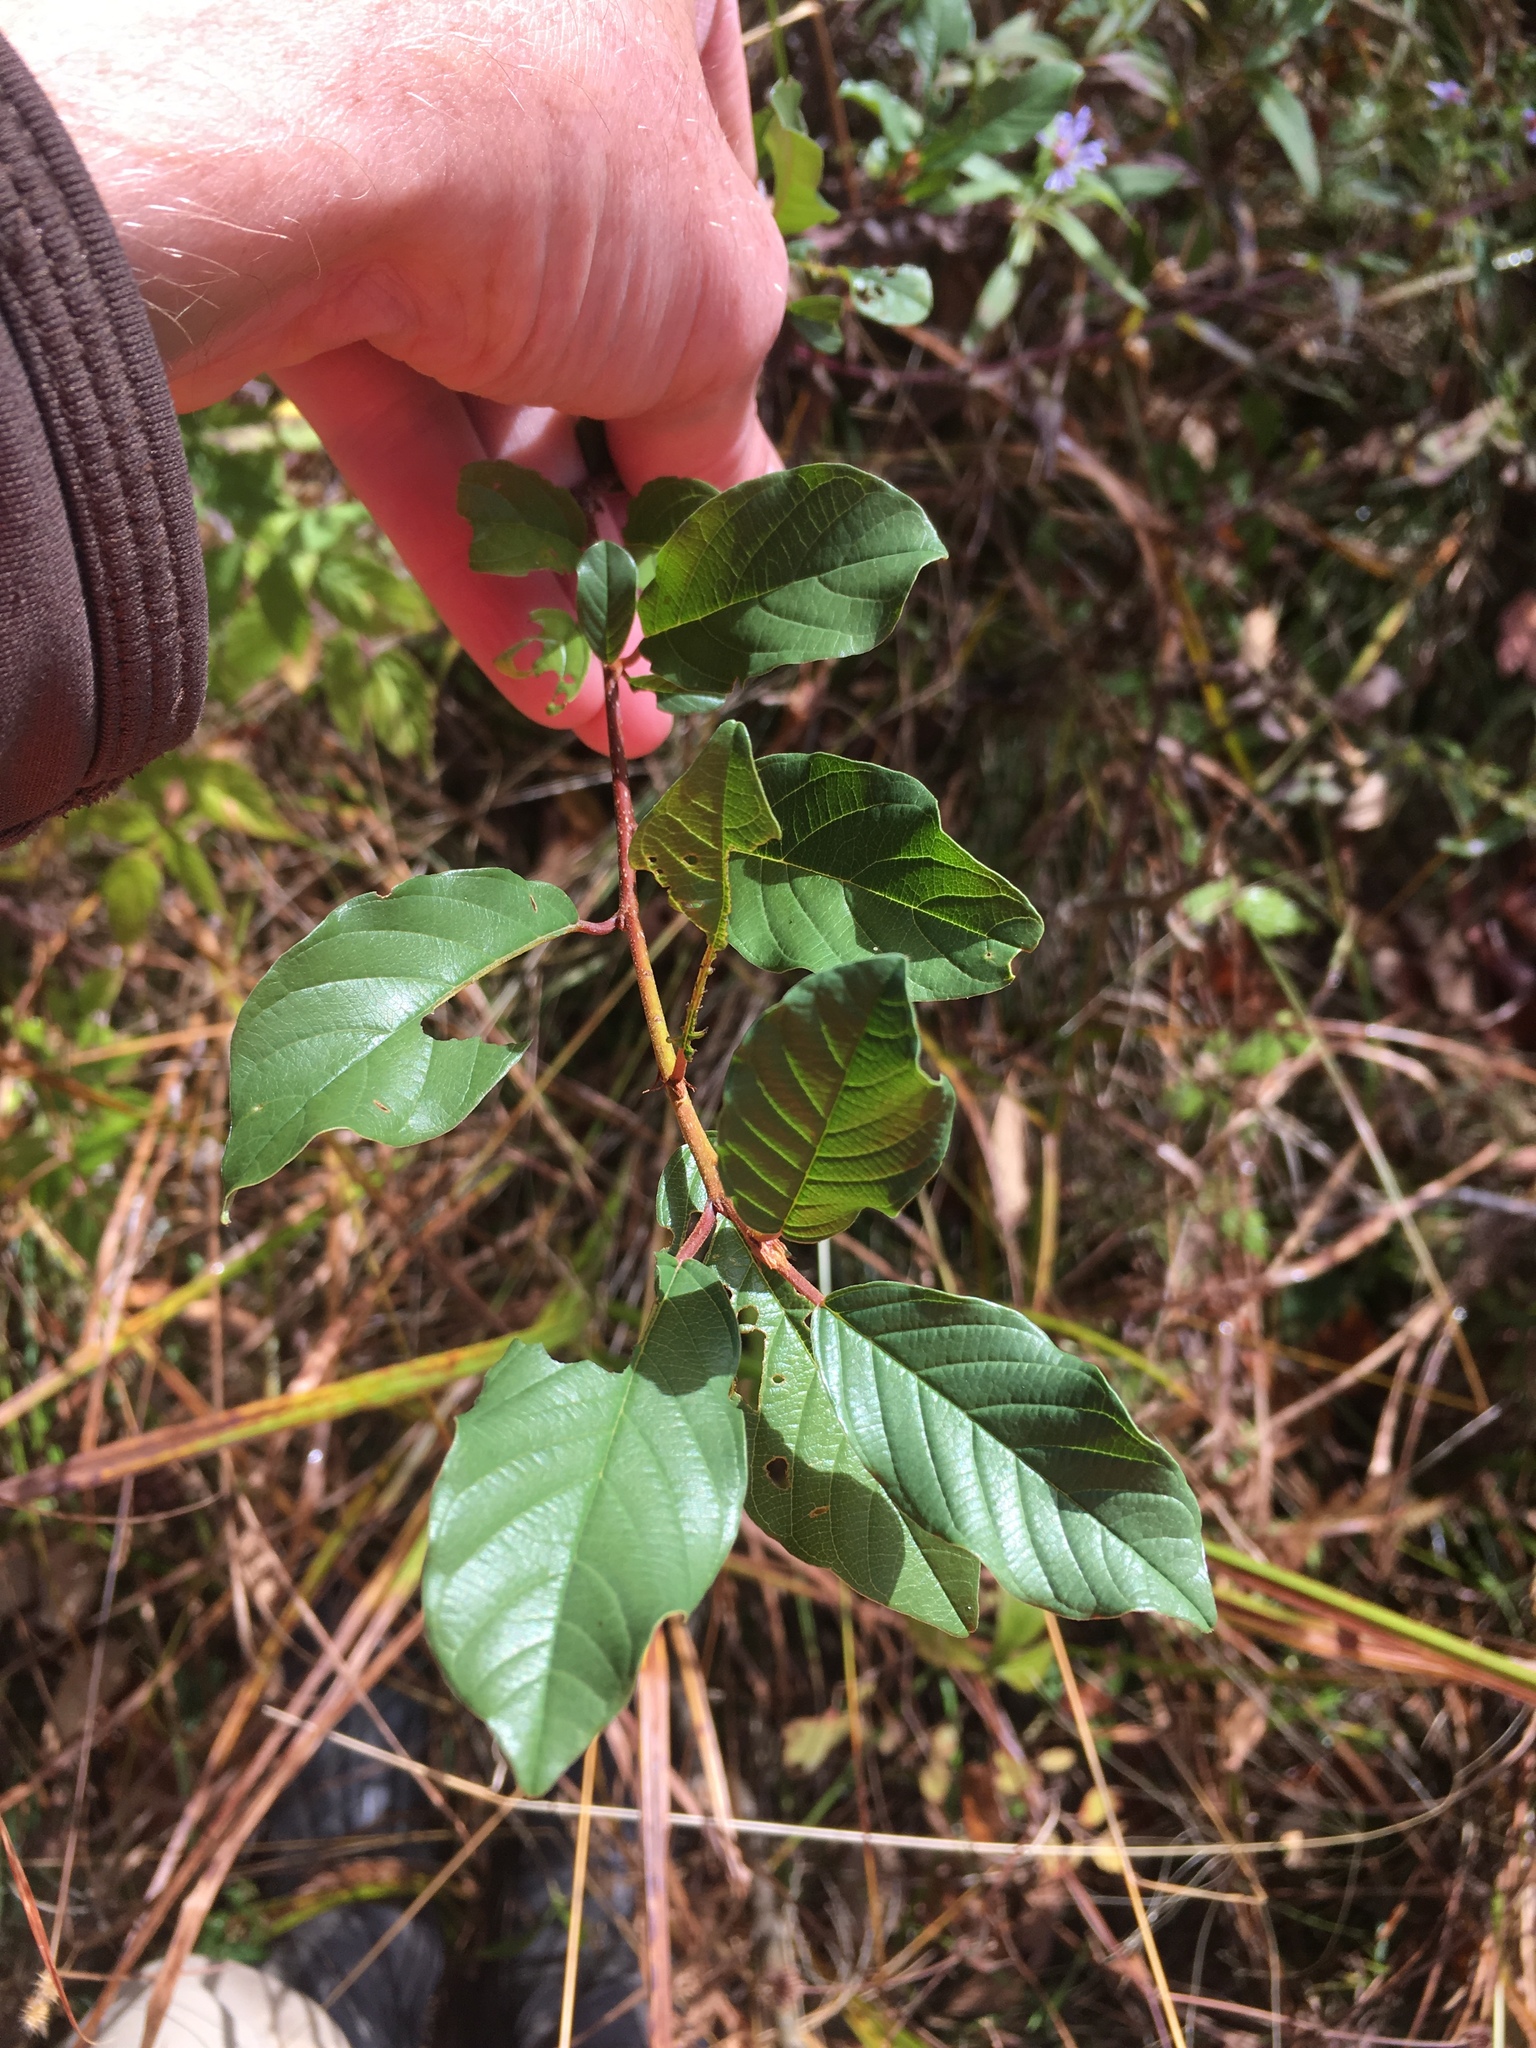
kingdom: Plantae
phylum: Tracheophyta
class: Magnoliopsida
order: Rosales
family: Rhamnaceae
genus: Frangula
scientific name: Frangula alnus
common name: Alder buckthorn
